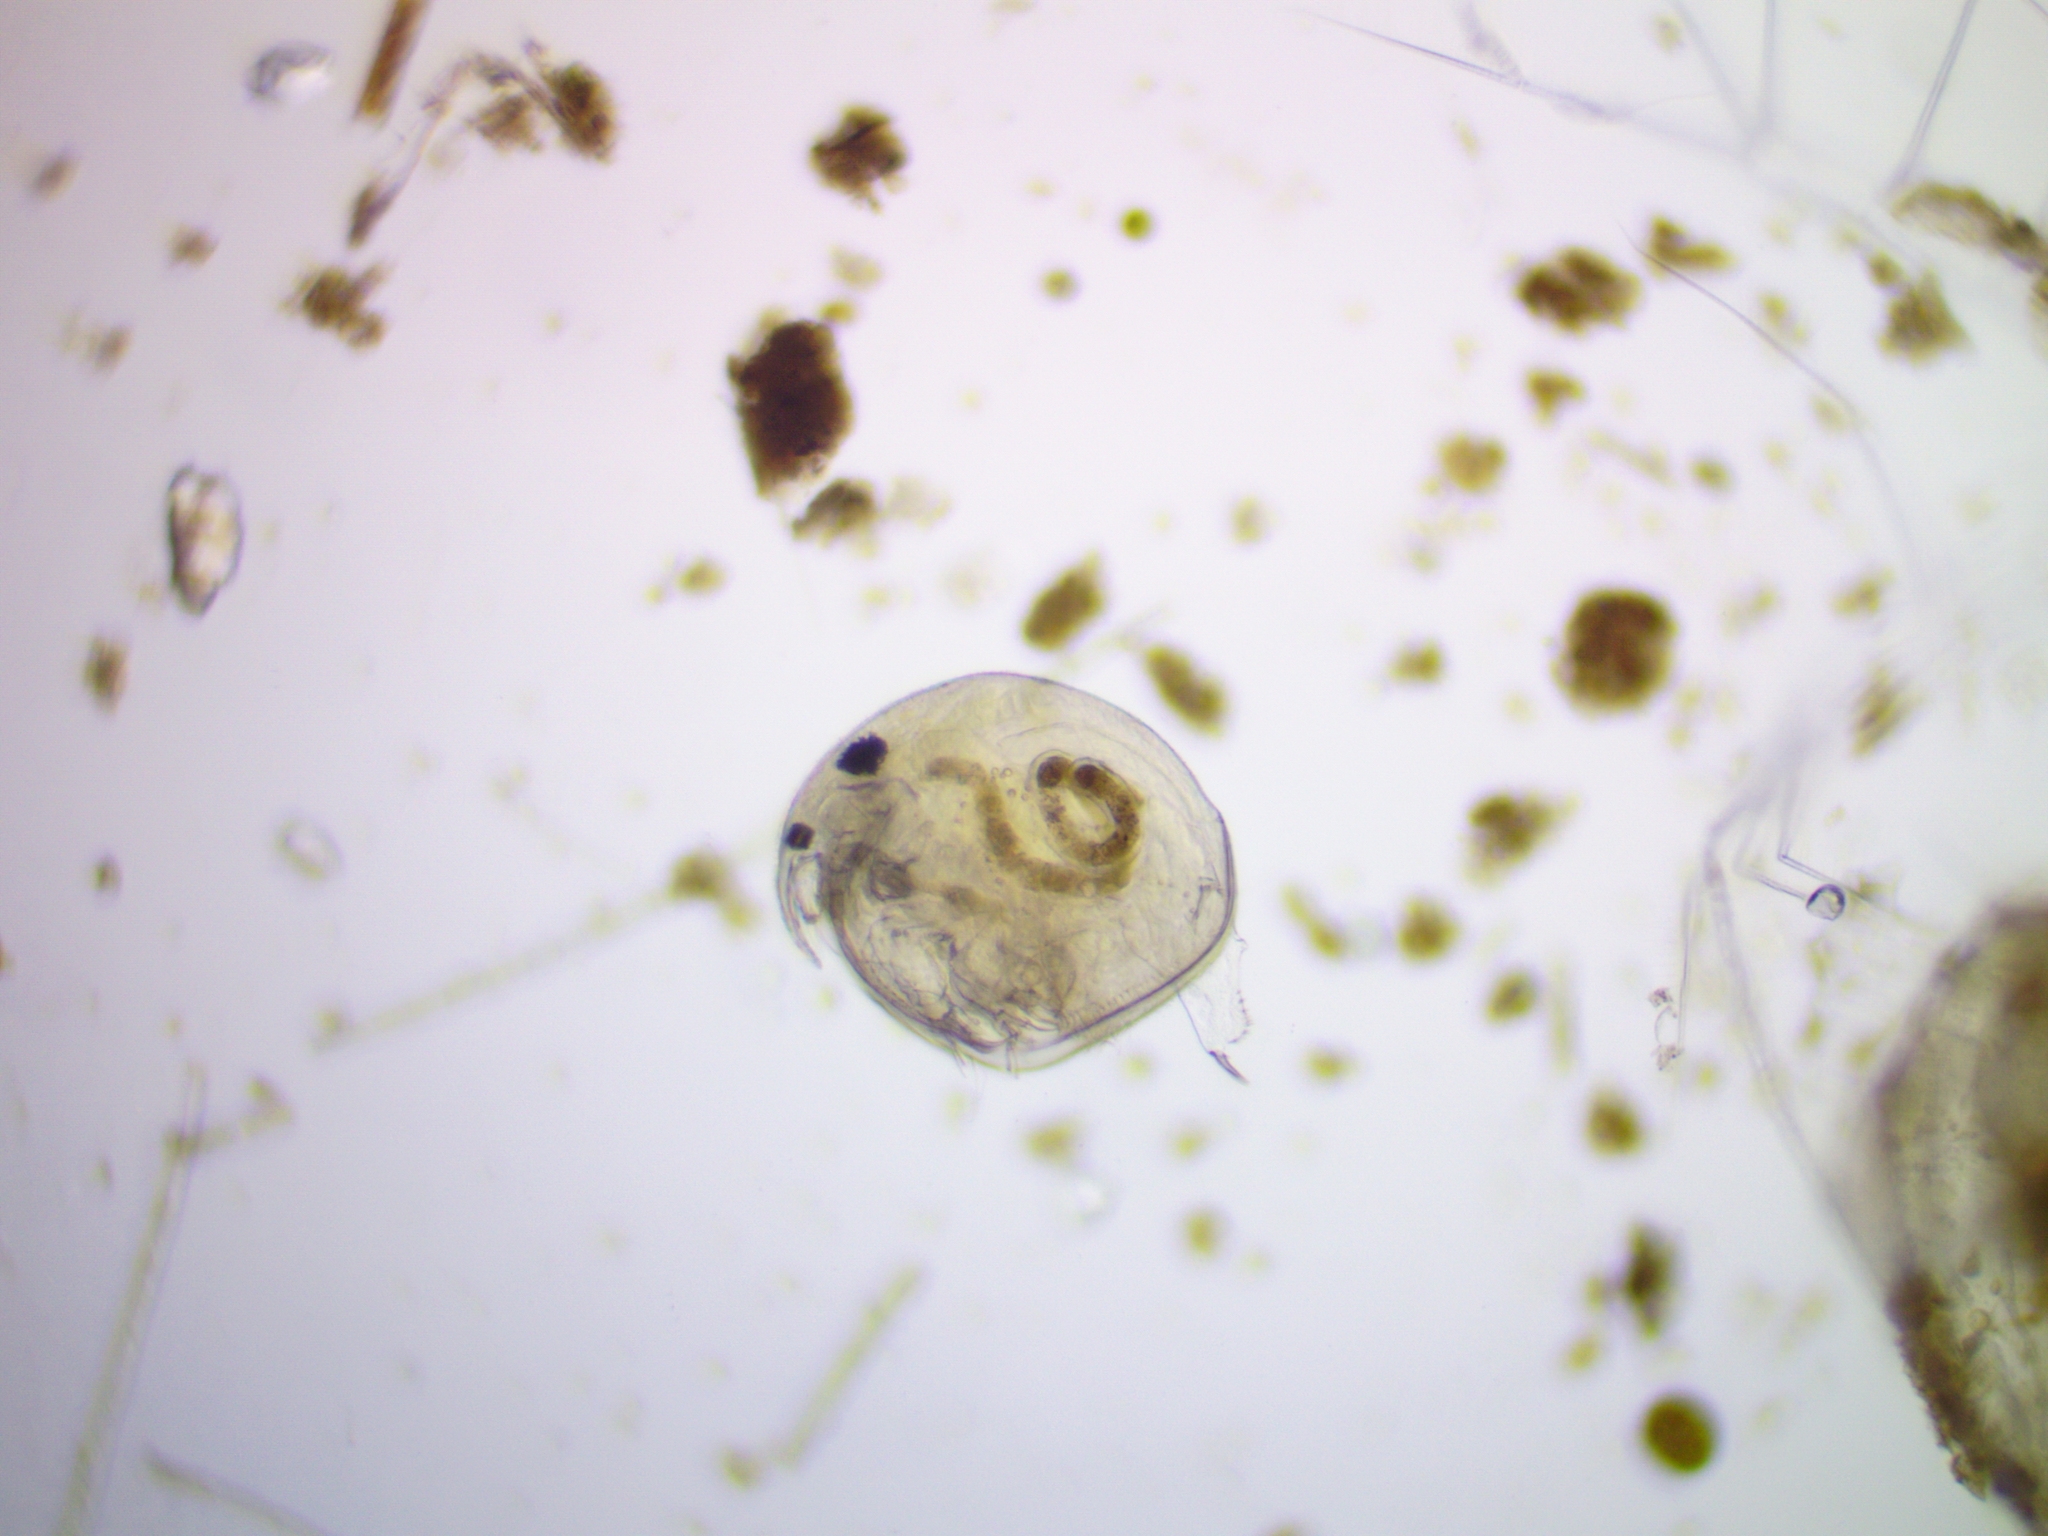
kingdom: Animalia
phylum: Arthropoda
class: Branchiopoda
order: Diplostraca
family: Chydoridae
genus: Chydorus
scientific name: Chydorus sphaericus
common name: Water flea
